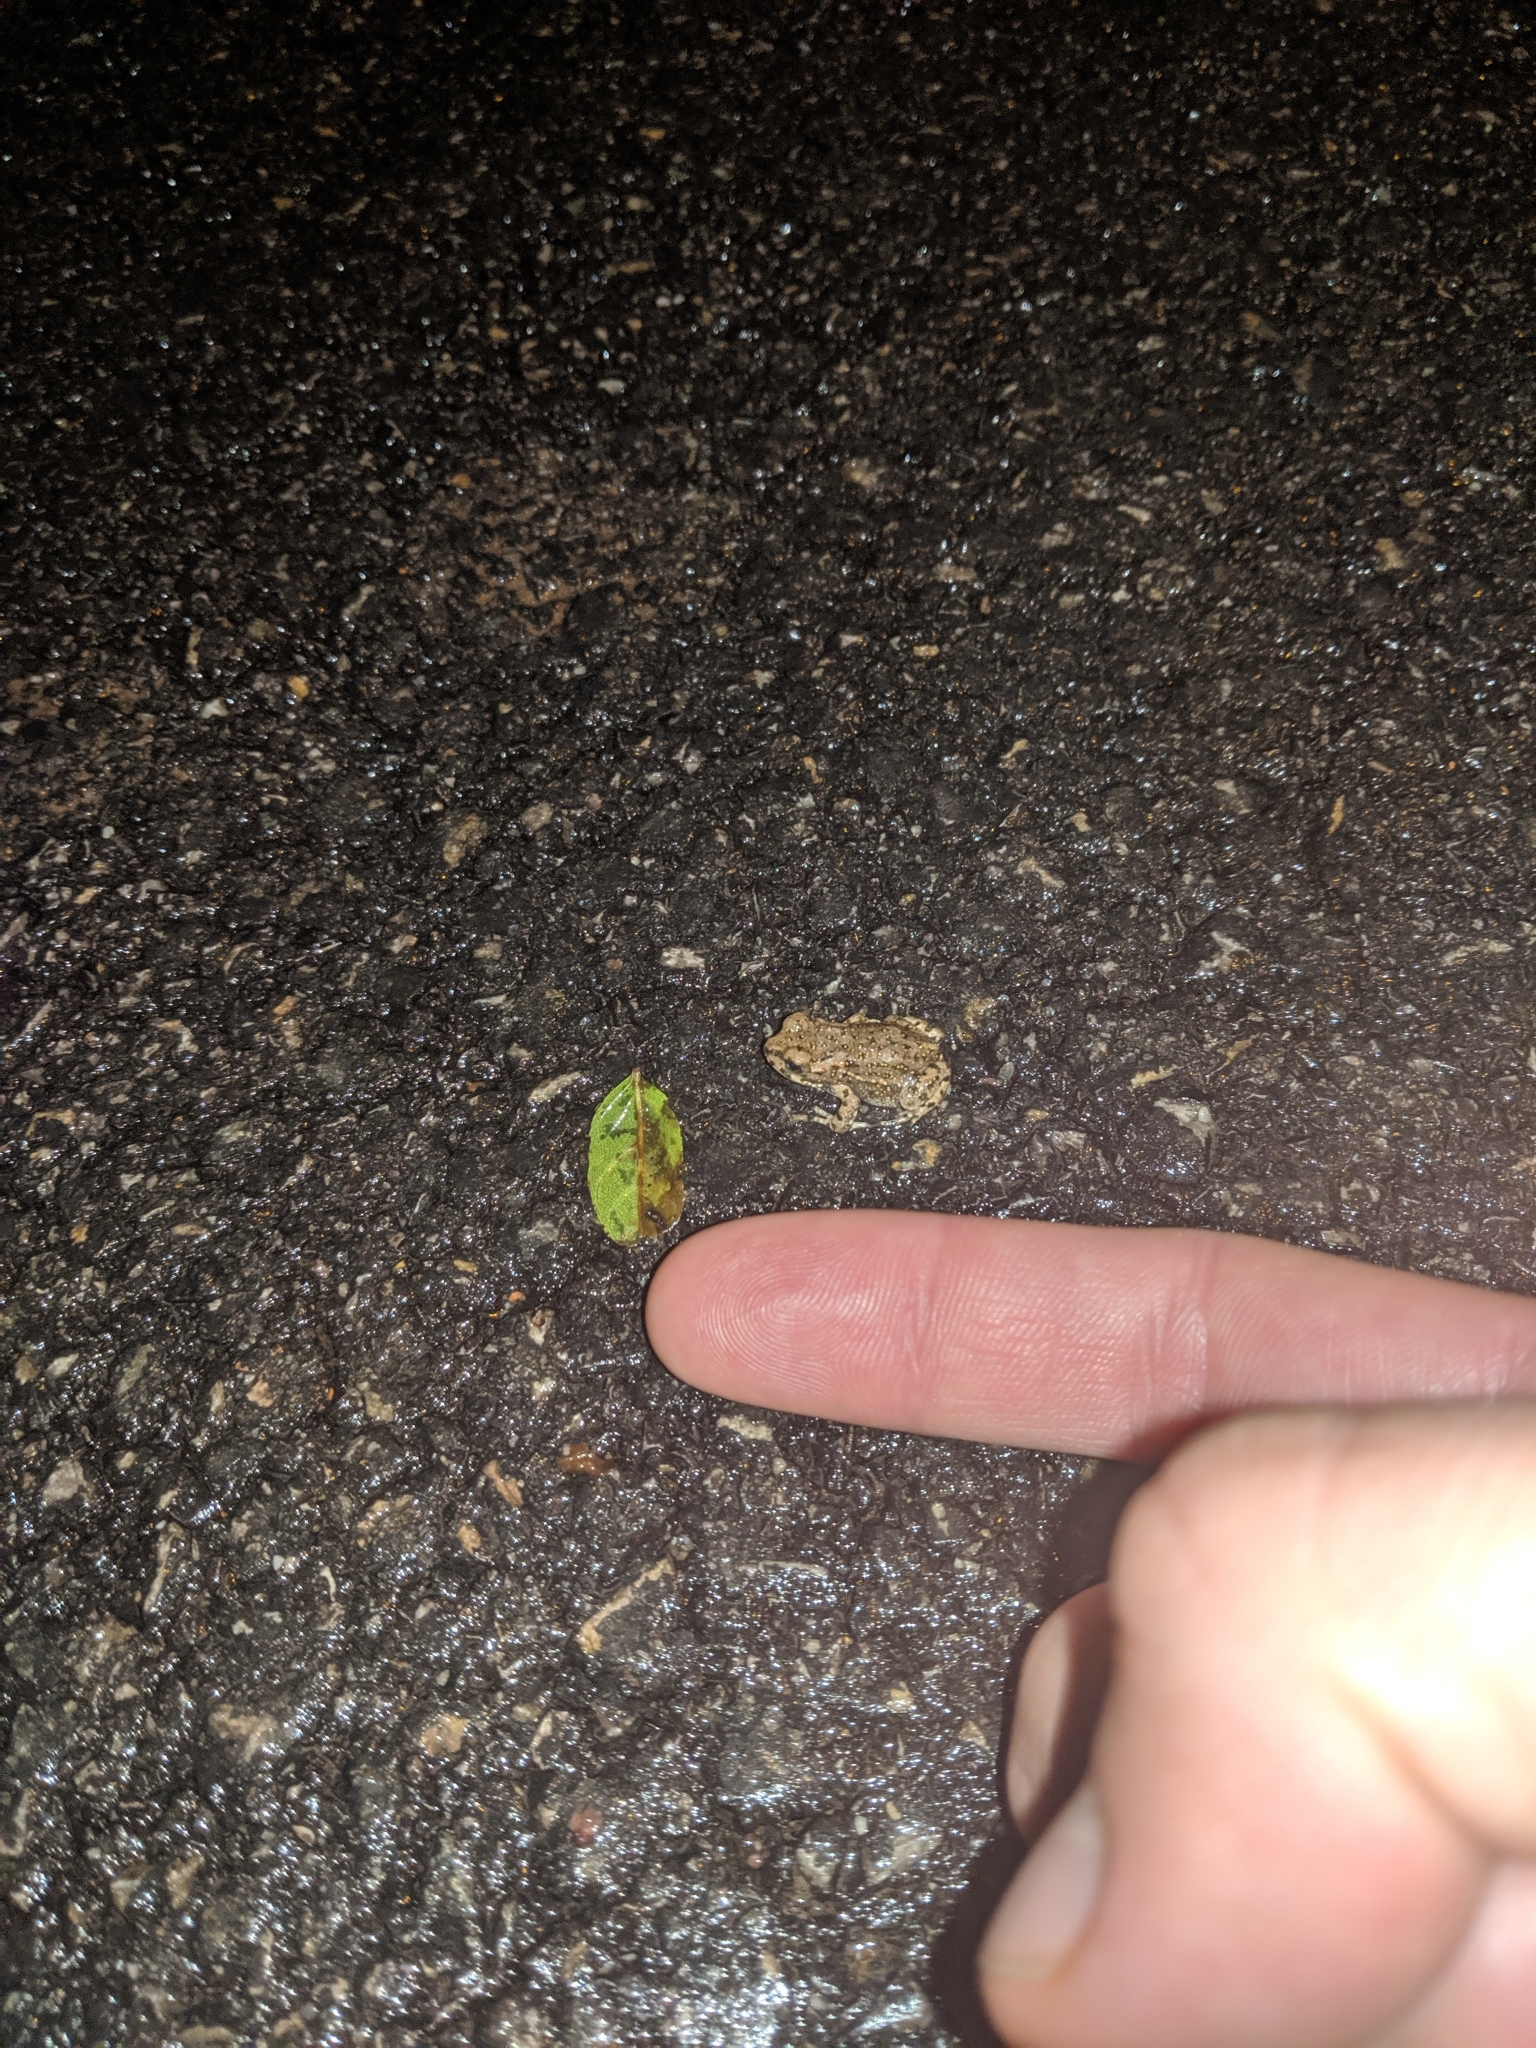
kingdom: Animalia
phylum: Chordata
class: Amphibia
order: Anura
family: Bufonidae
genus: Bufotes
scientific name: Bufotes viridis
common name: European green toad
